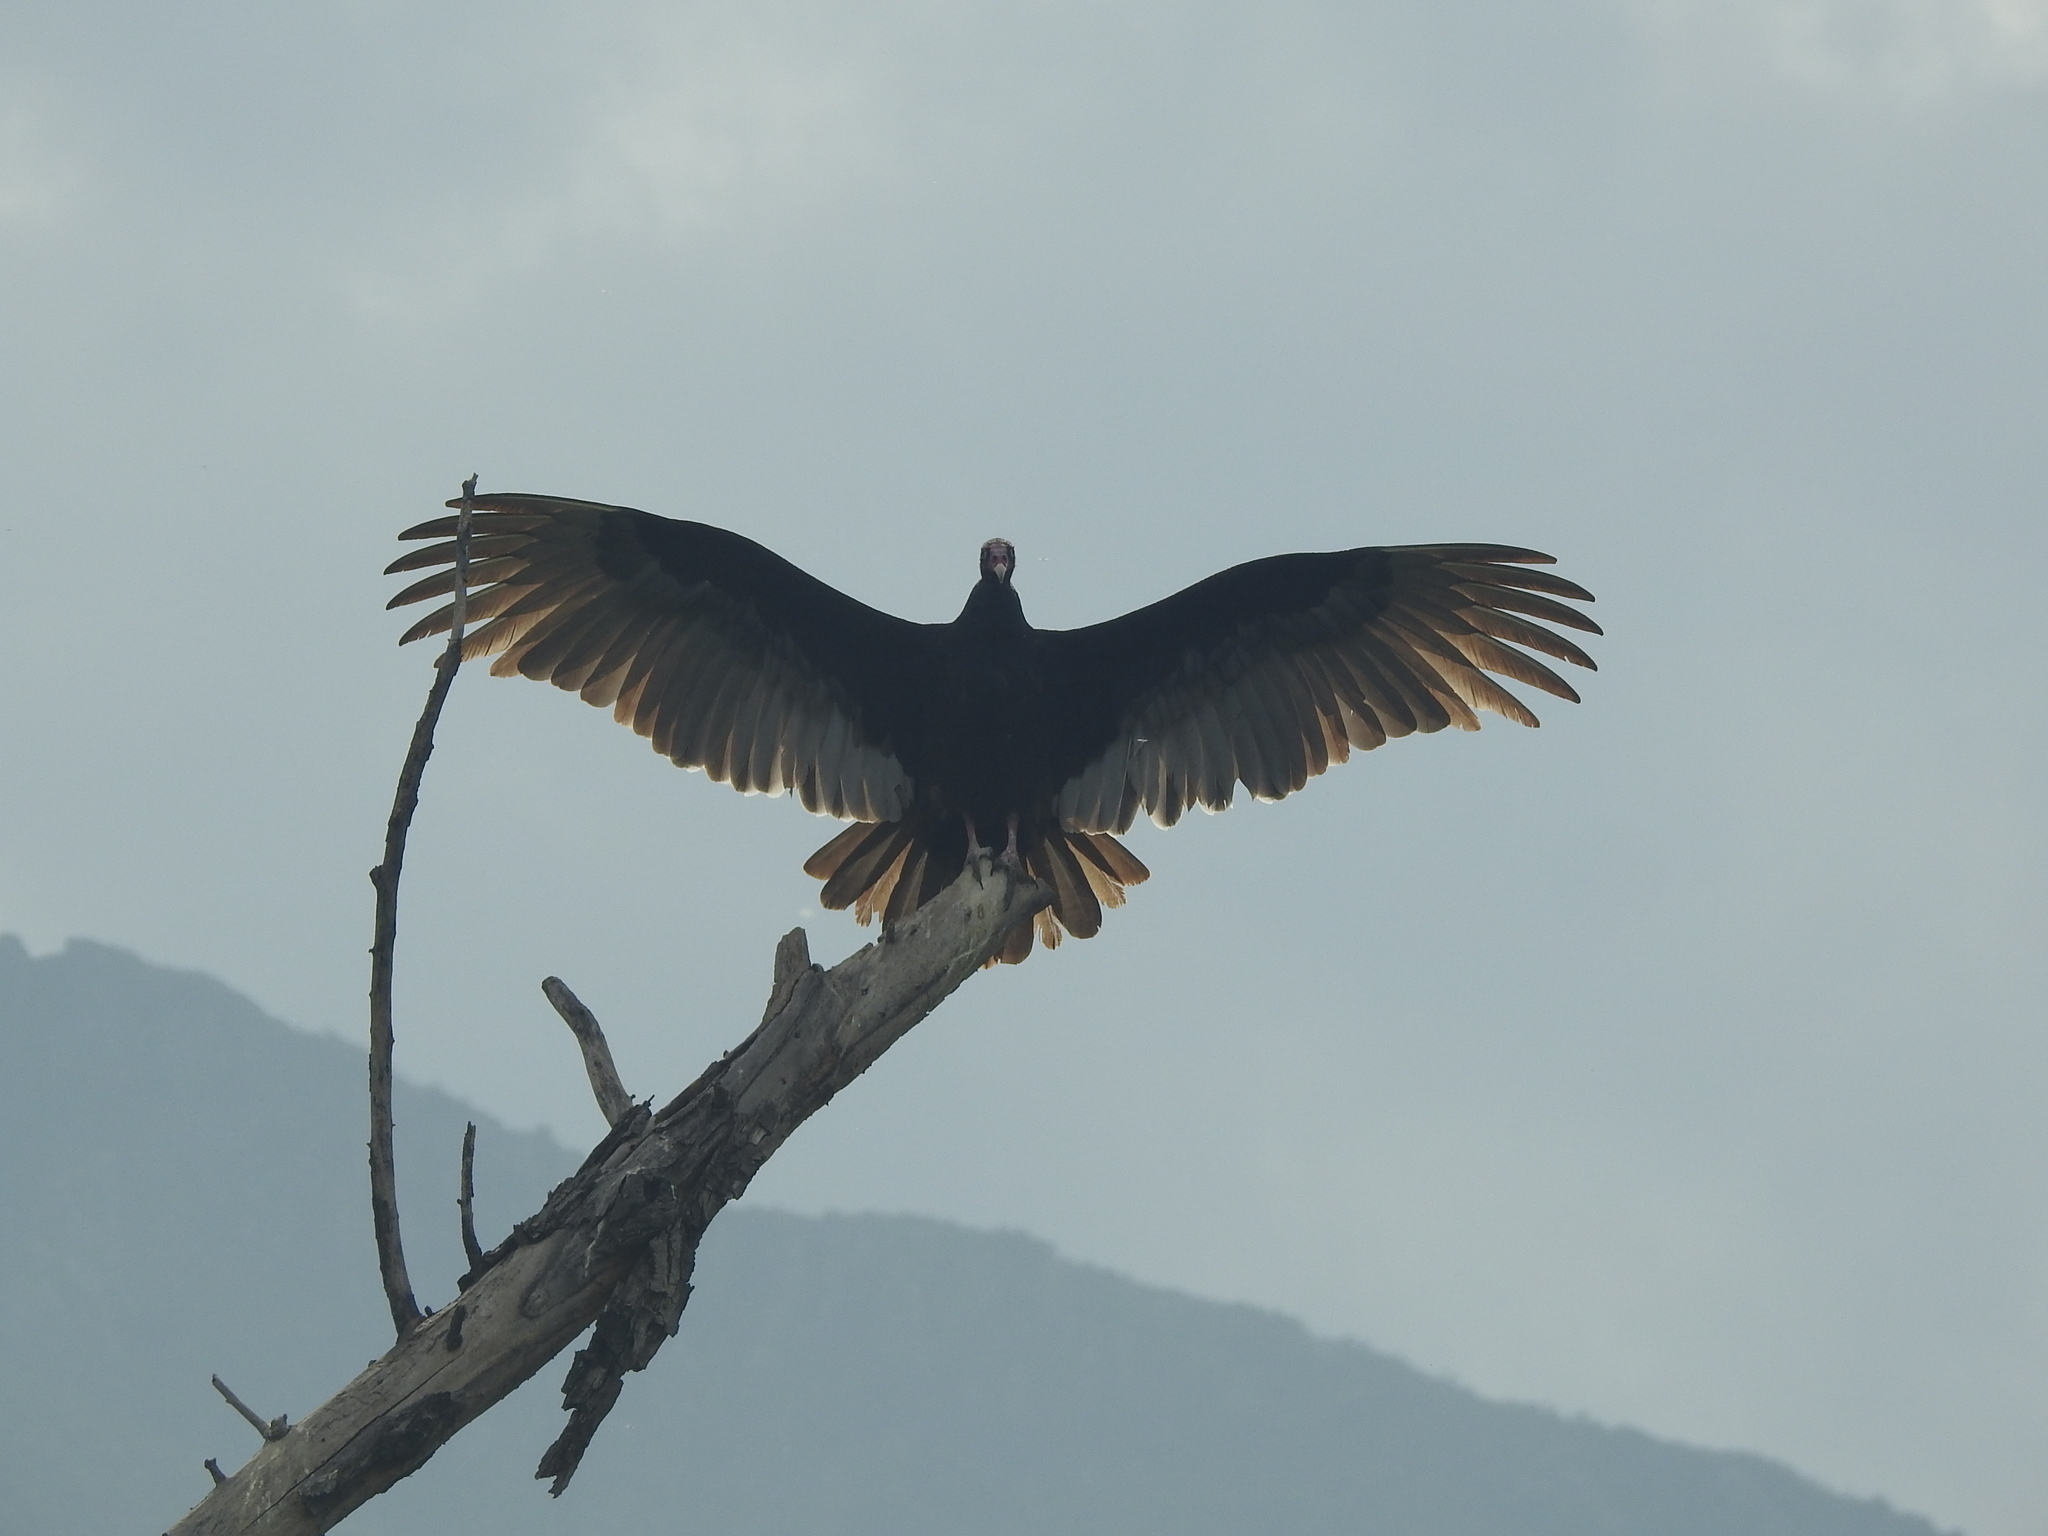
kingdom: Animalia
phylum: Chordata
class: Aves
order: Accipitriformes
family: Cathartidae
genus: Cathartes
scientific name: Cathartes aura
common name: Turkey vulture
